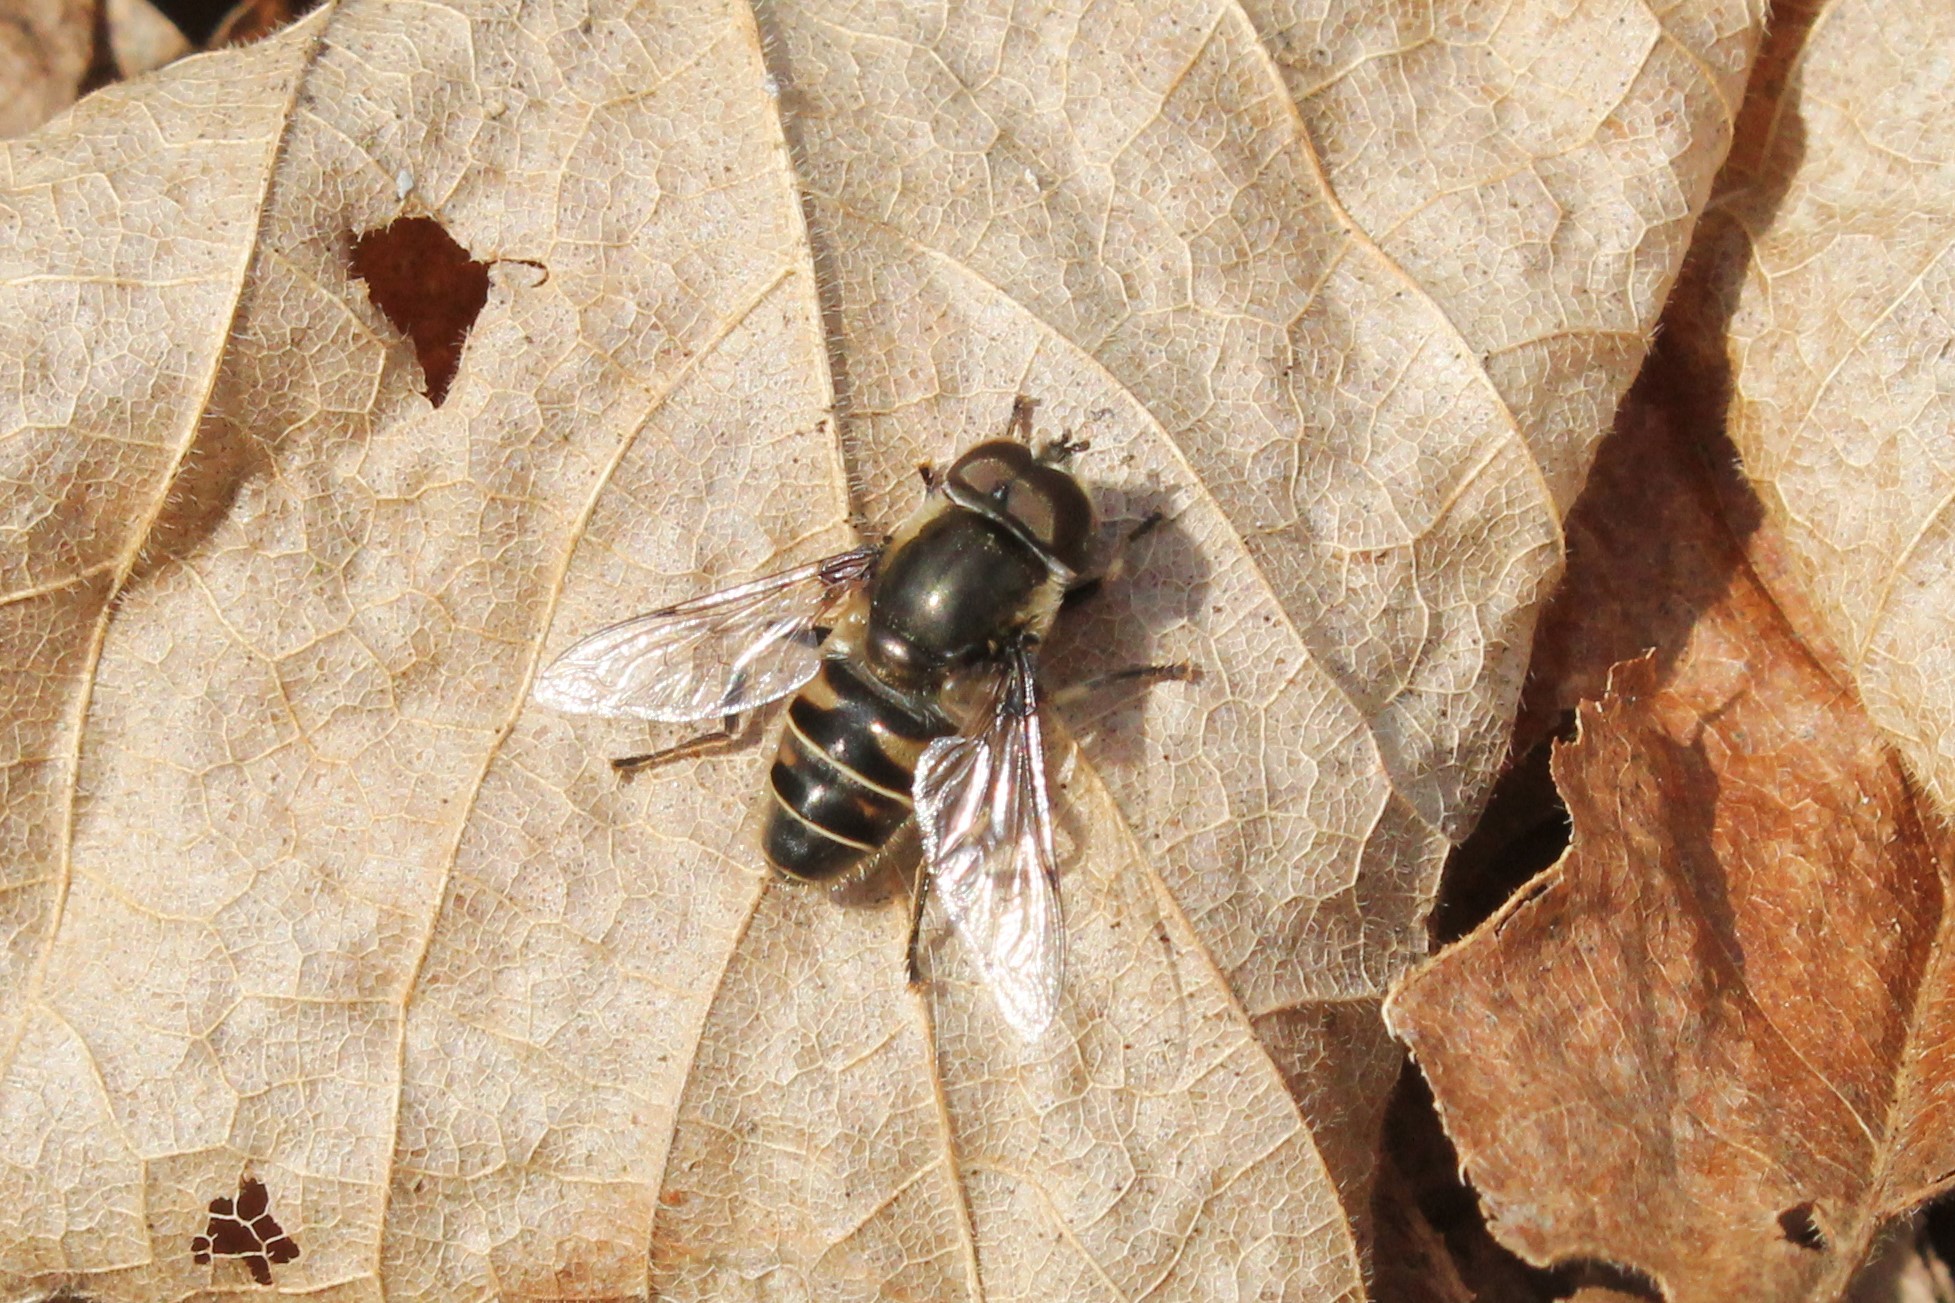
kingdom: Animalia
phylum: Arthropoda
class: Insecta
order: Diptera
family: Syrphidae
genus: Eristalis
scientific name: Eristalis dimidiata
